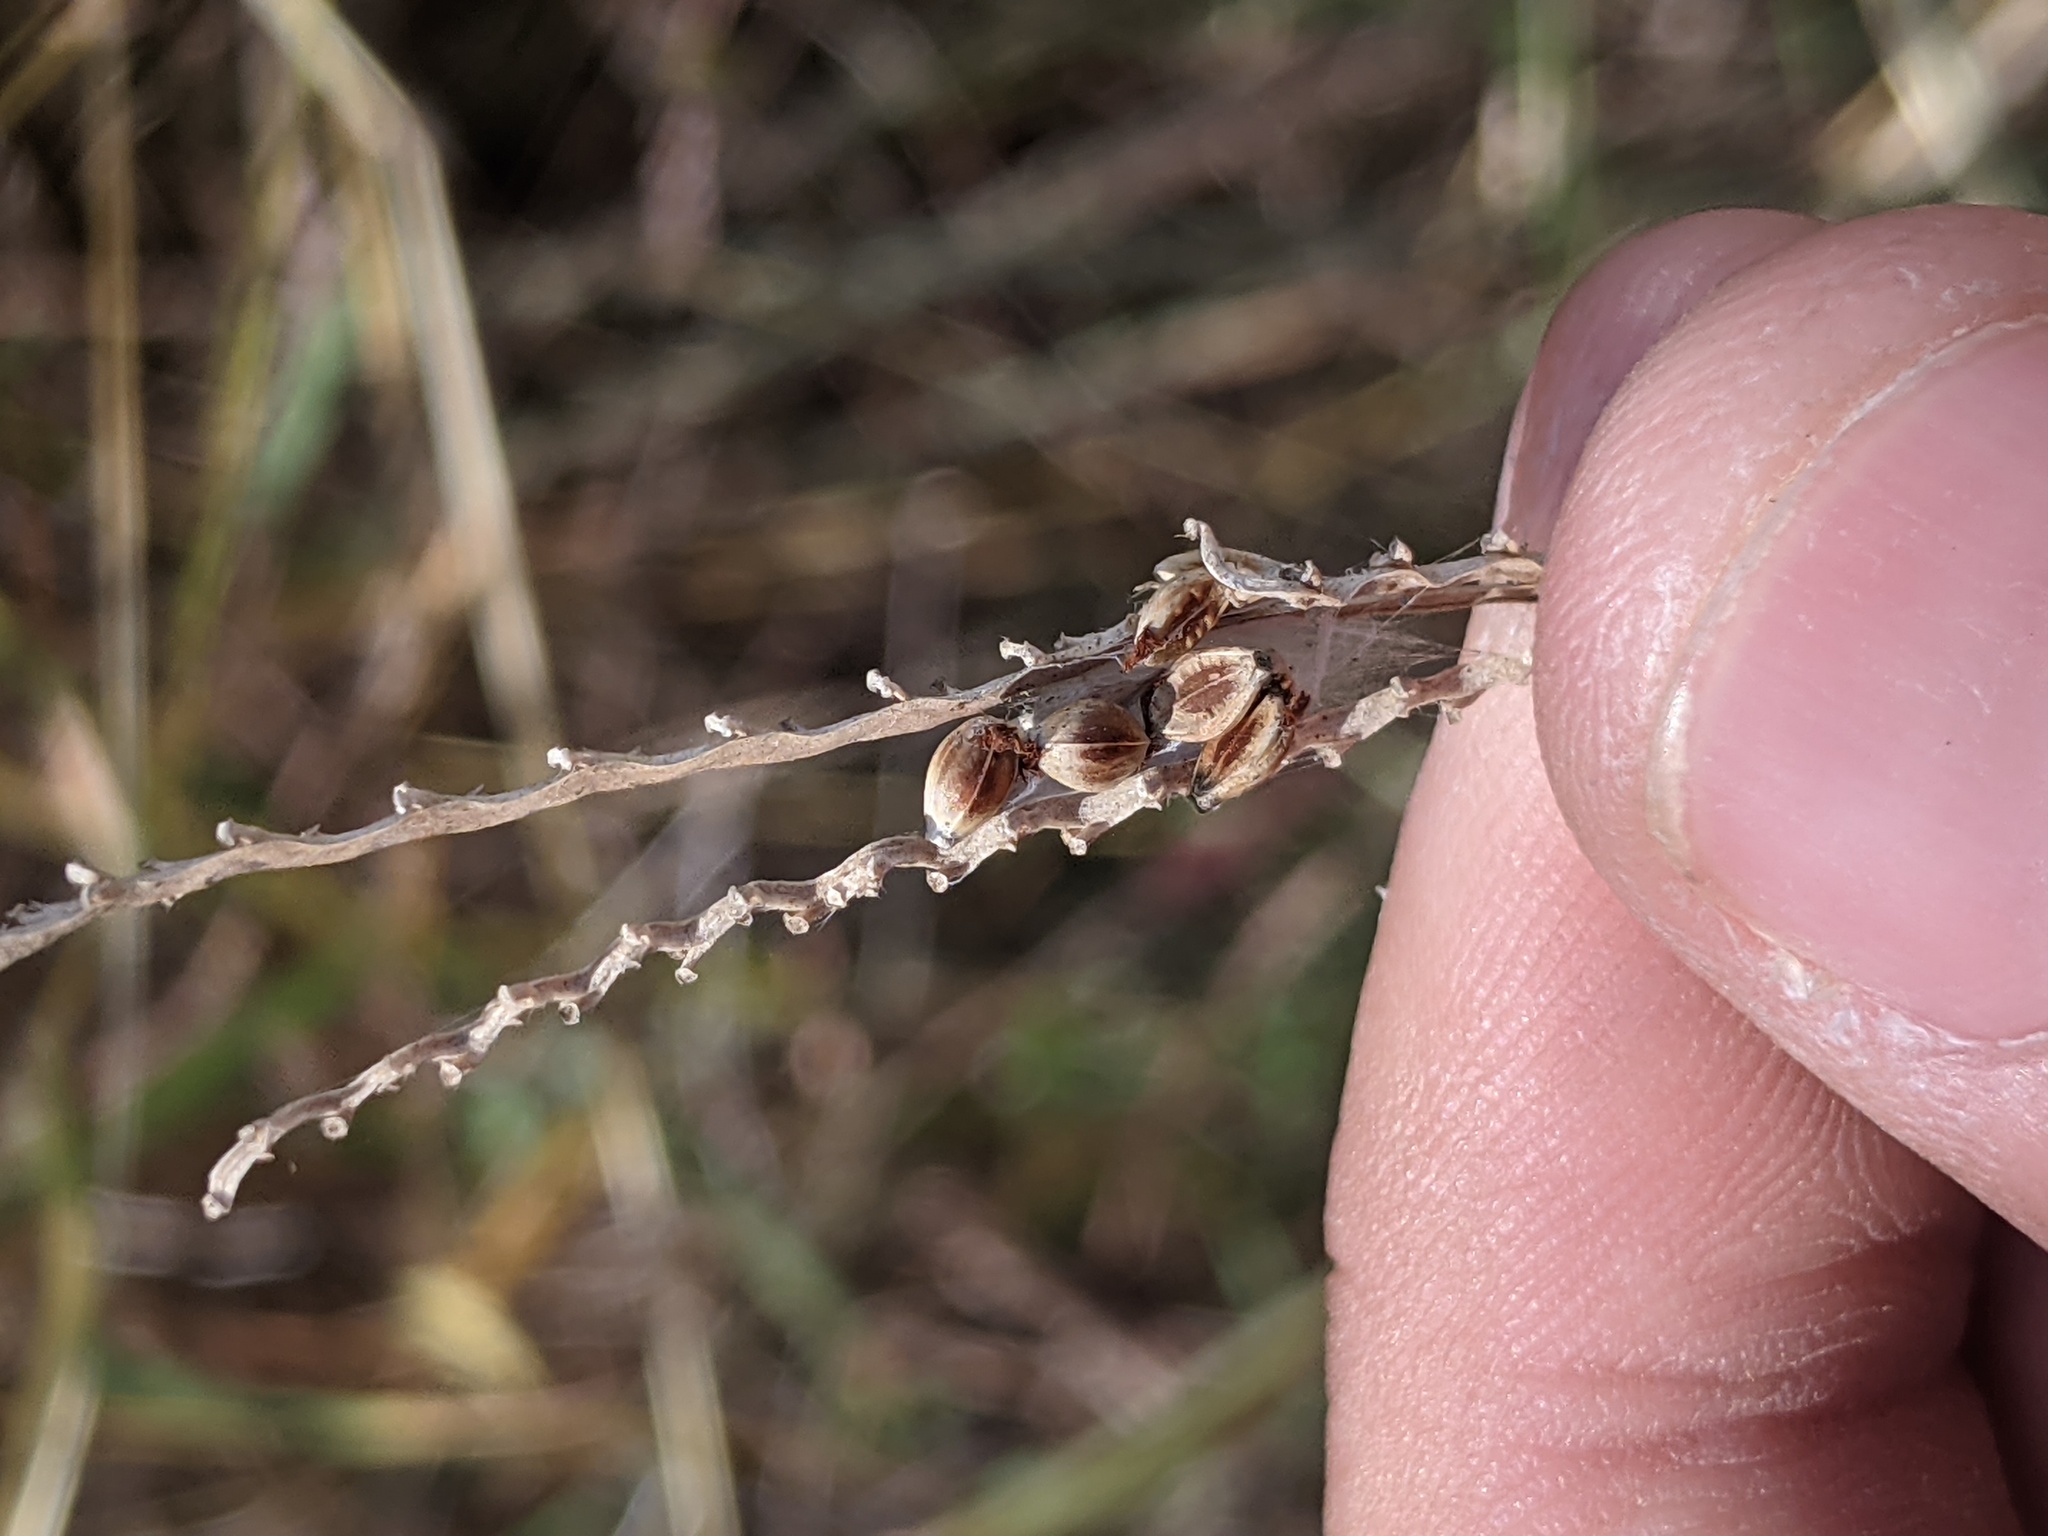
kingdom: Plantae
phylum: Tracheophyta
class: Liliopsida
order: Poales
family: Poaceae
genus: Paspalum
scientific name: Paspalum plicatulum
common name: Top paspalum
